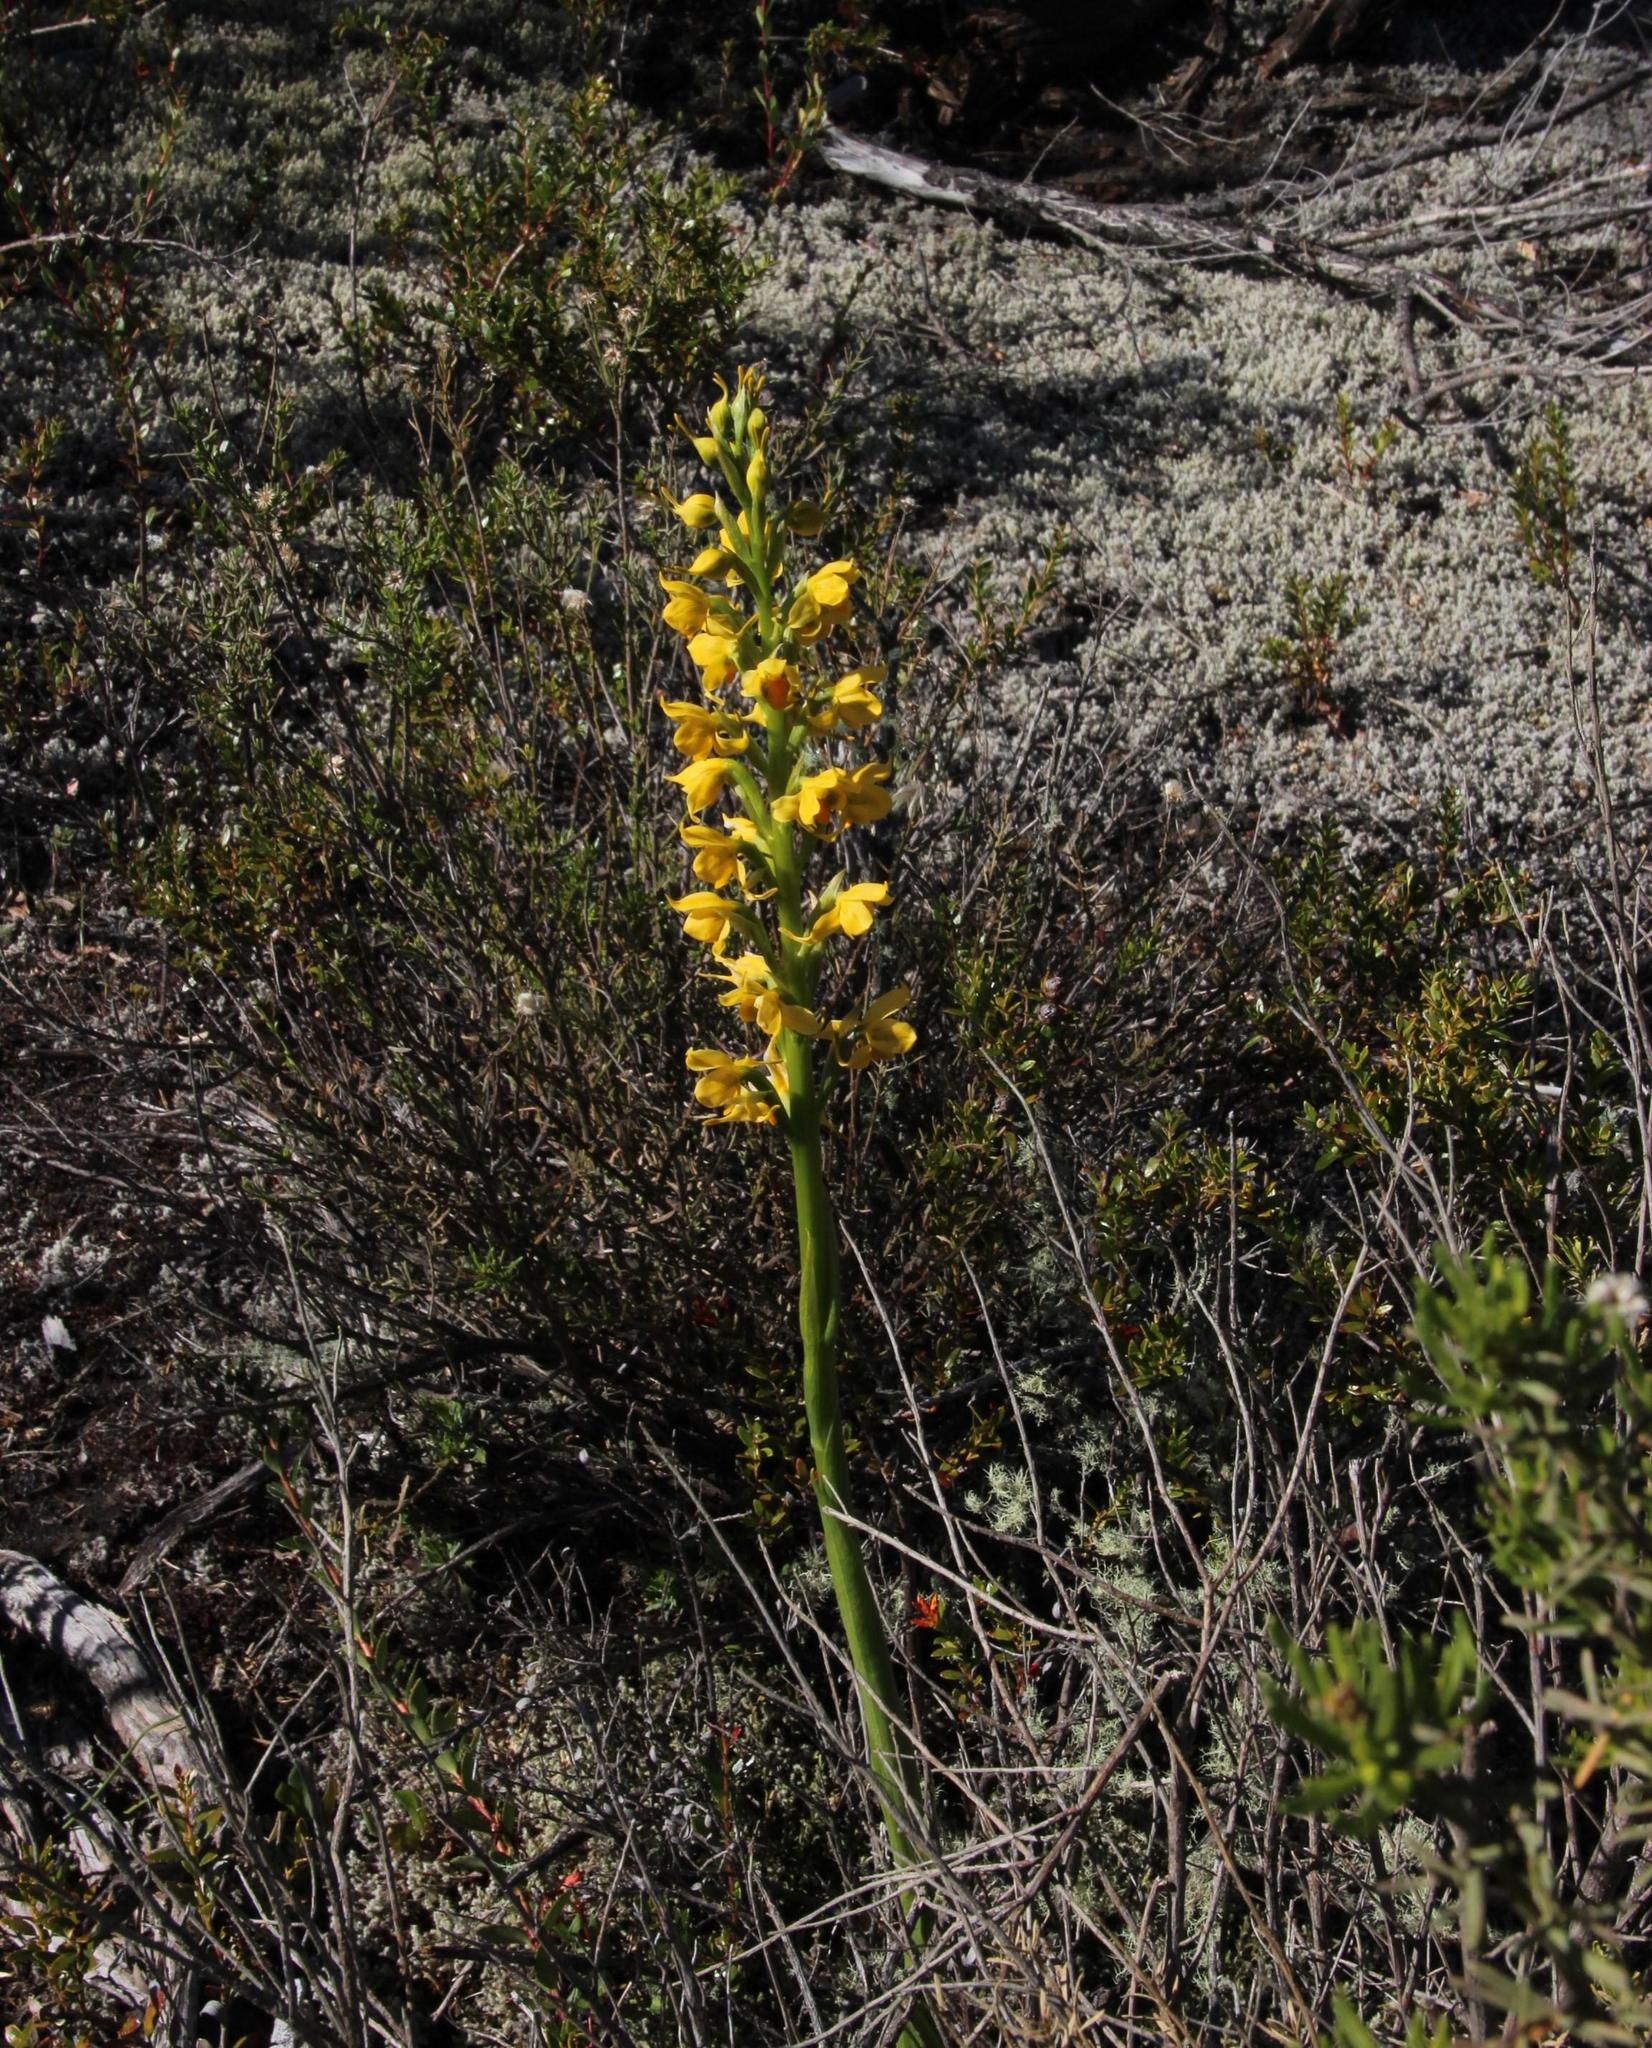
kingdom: Plantae
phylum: Tracheophyta
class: Liliopsida
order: Asparagales
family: Orchidaceae
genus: Gavilea
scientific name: Gavilea odoratissima
